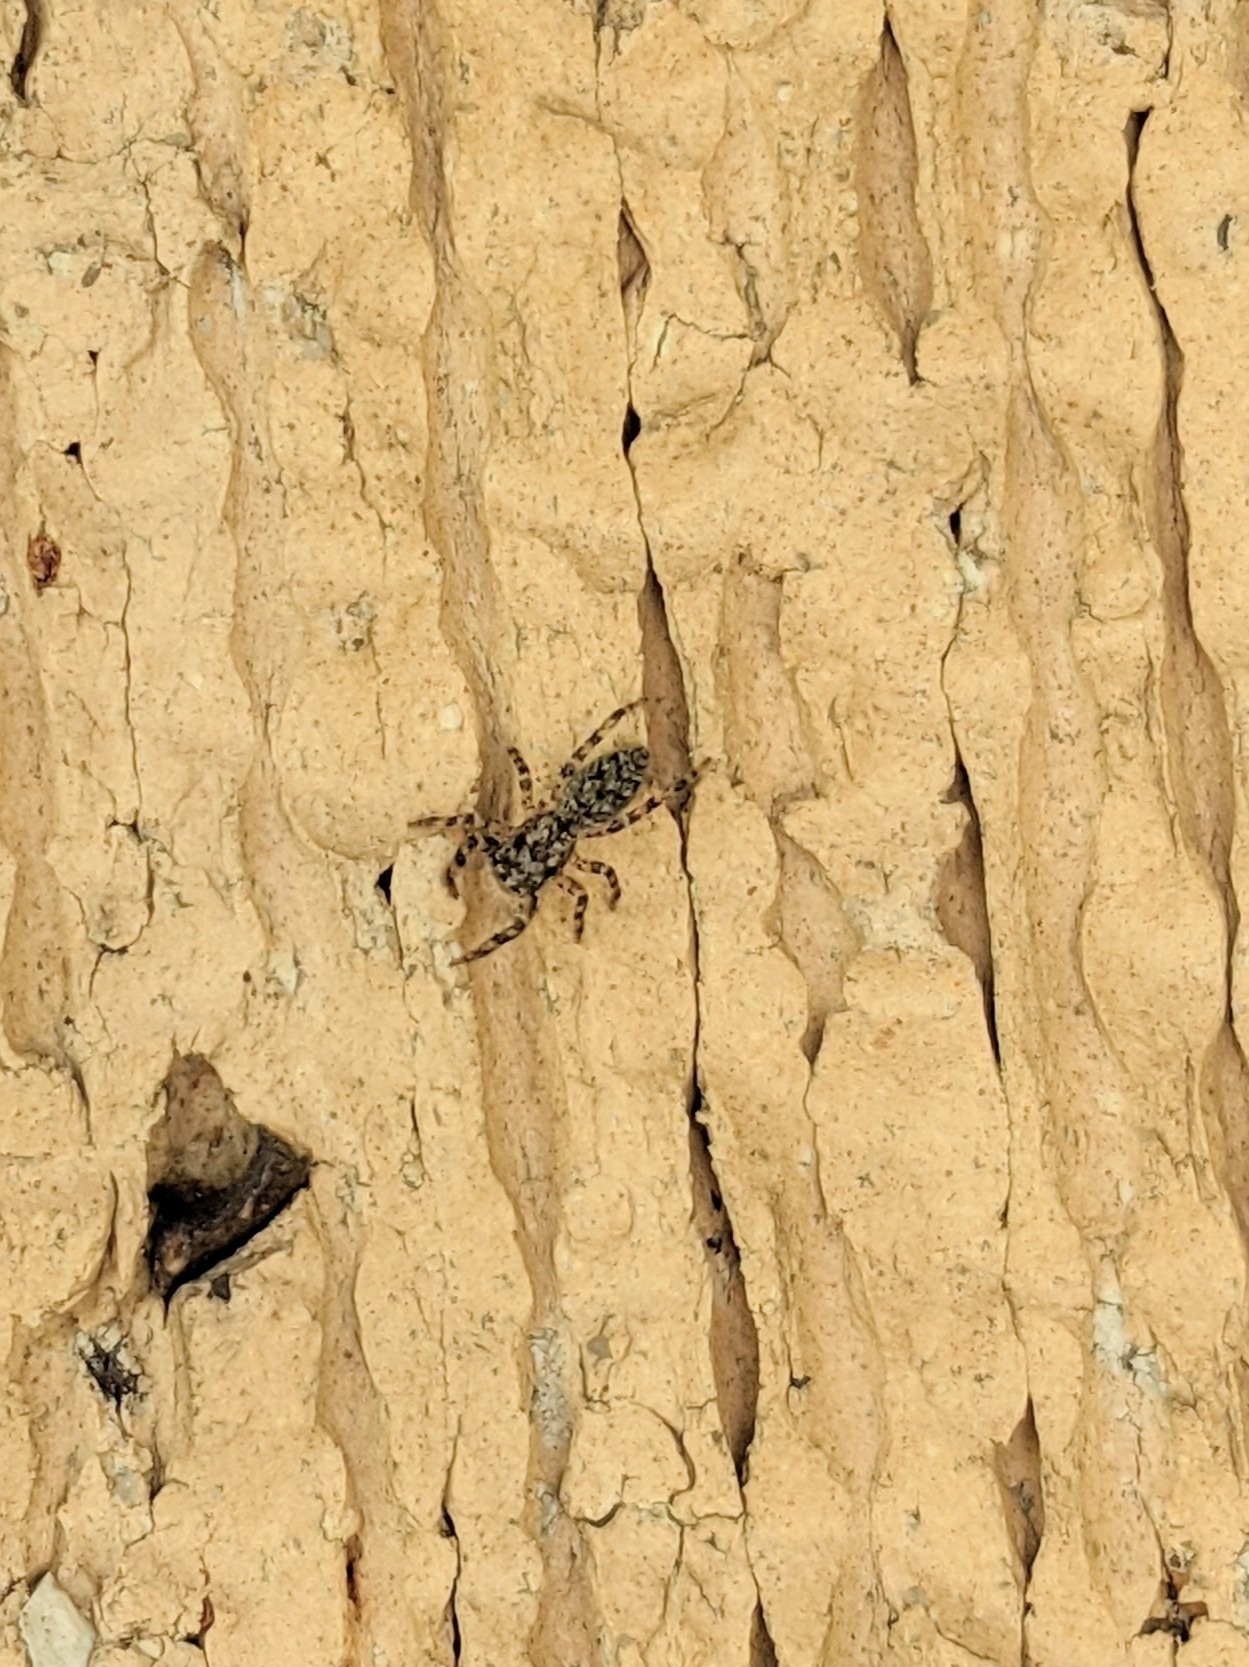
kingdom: Animalia
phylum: Arthropoda
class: Arachnida
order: Araneae
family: Salticidae
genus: Platycryptus
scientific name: Platycryptus undatus
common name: Tan jumping spider
